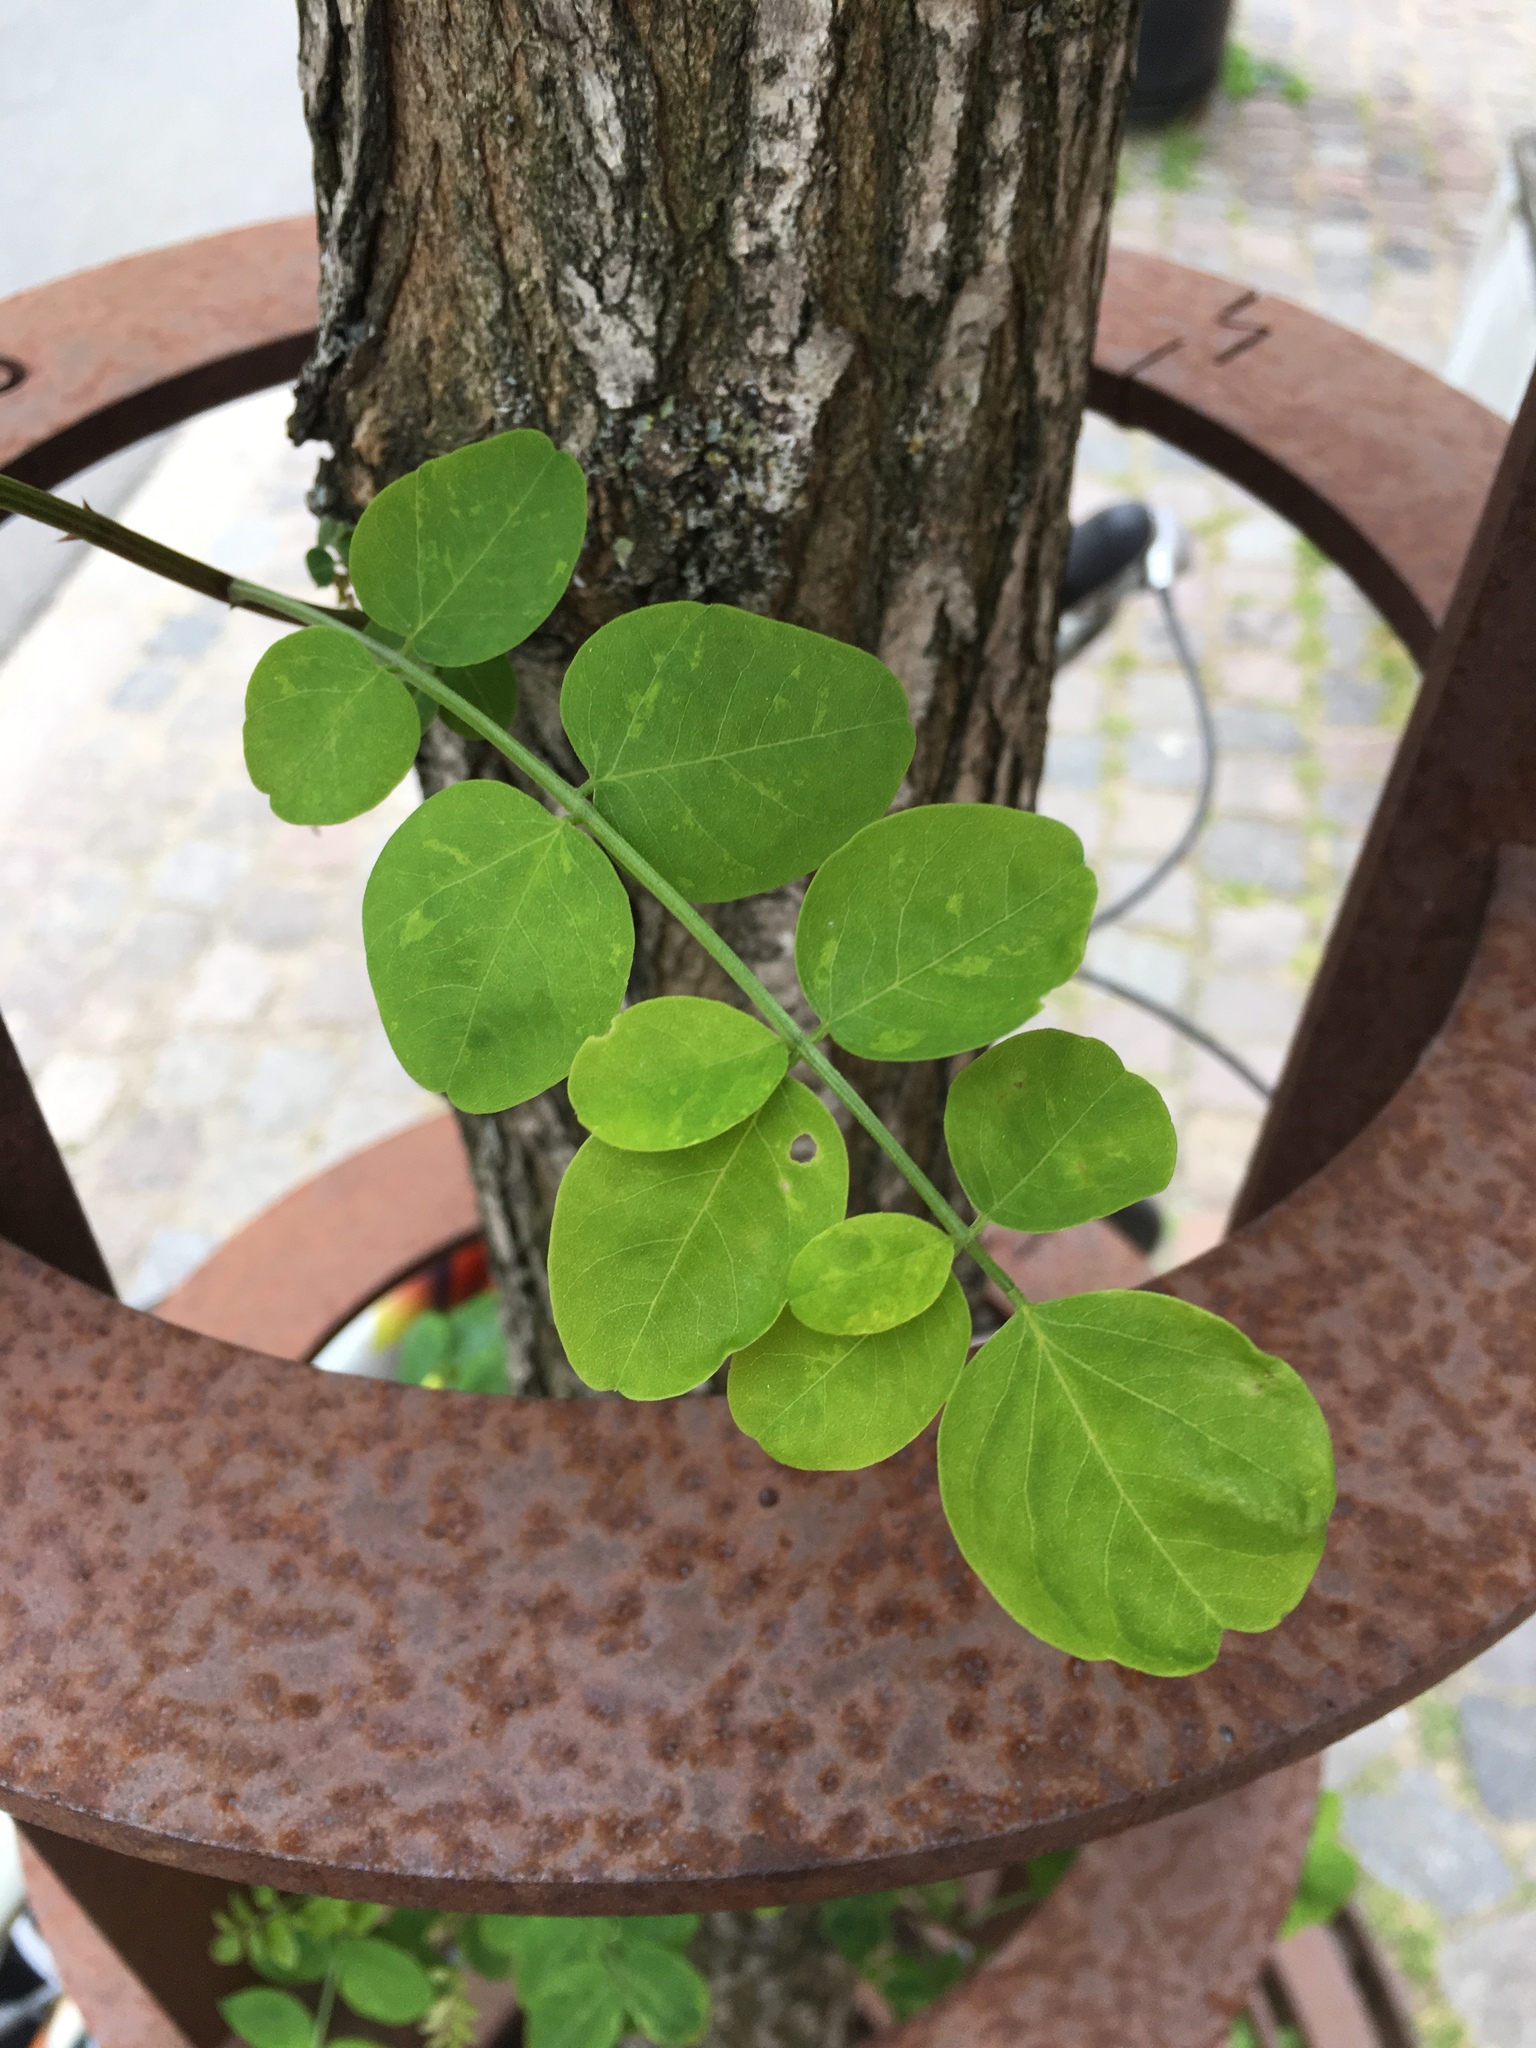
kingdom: Plantae
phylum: Tracheophyta
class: Magnoliopsida
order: Fabales
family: Fabaceae
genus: Robinia
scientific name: Robinia pseudoacacia
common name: Black locust
